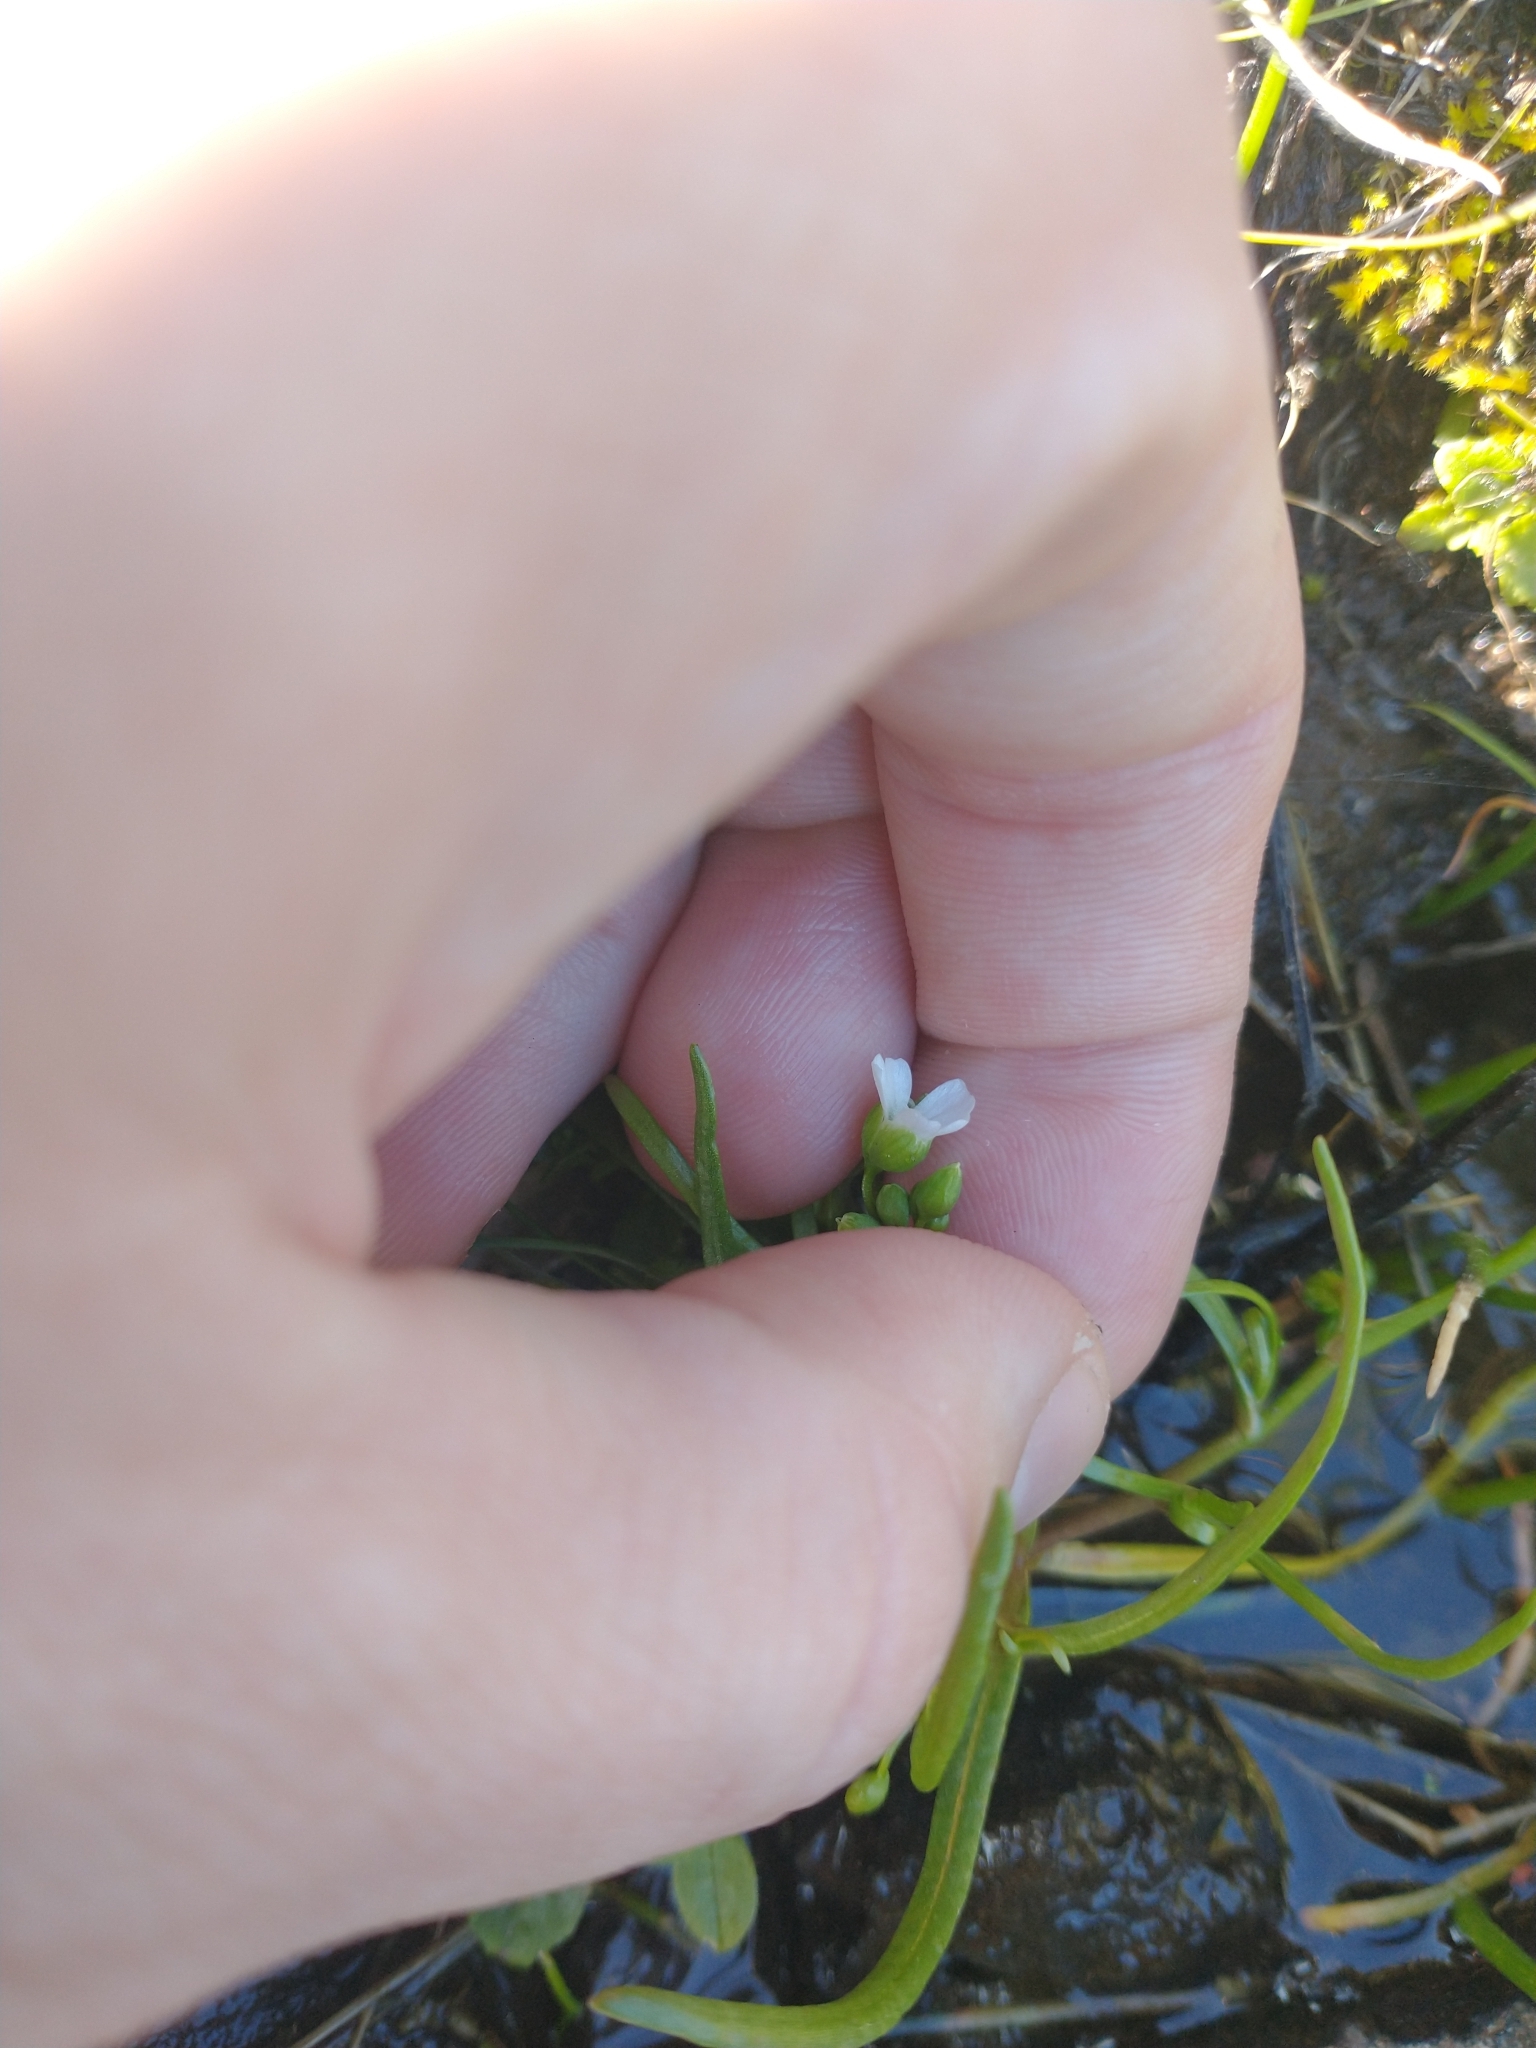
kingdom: Plantae
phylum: Tracheophyta
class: Magnoliopsida
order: Caryophyllales
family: Montiaceae
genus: Montia
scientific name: Montia linearis
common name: Narrow-leaf montia
